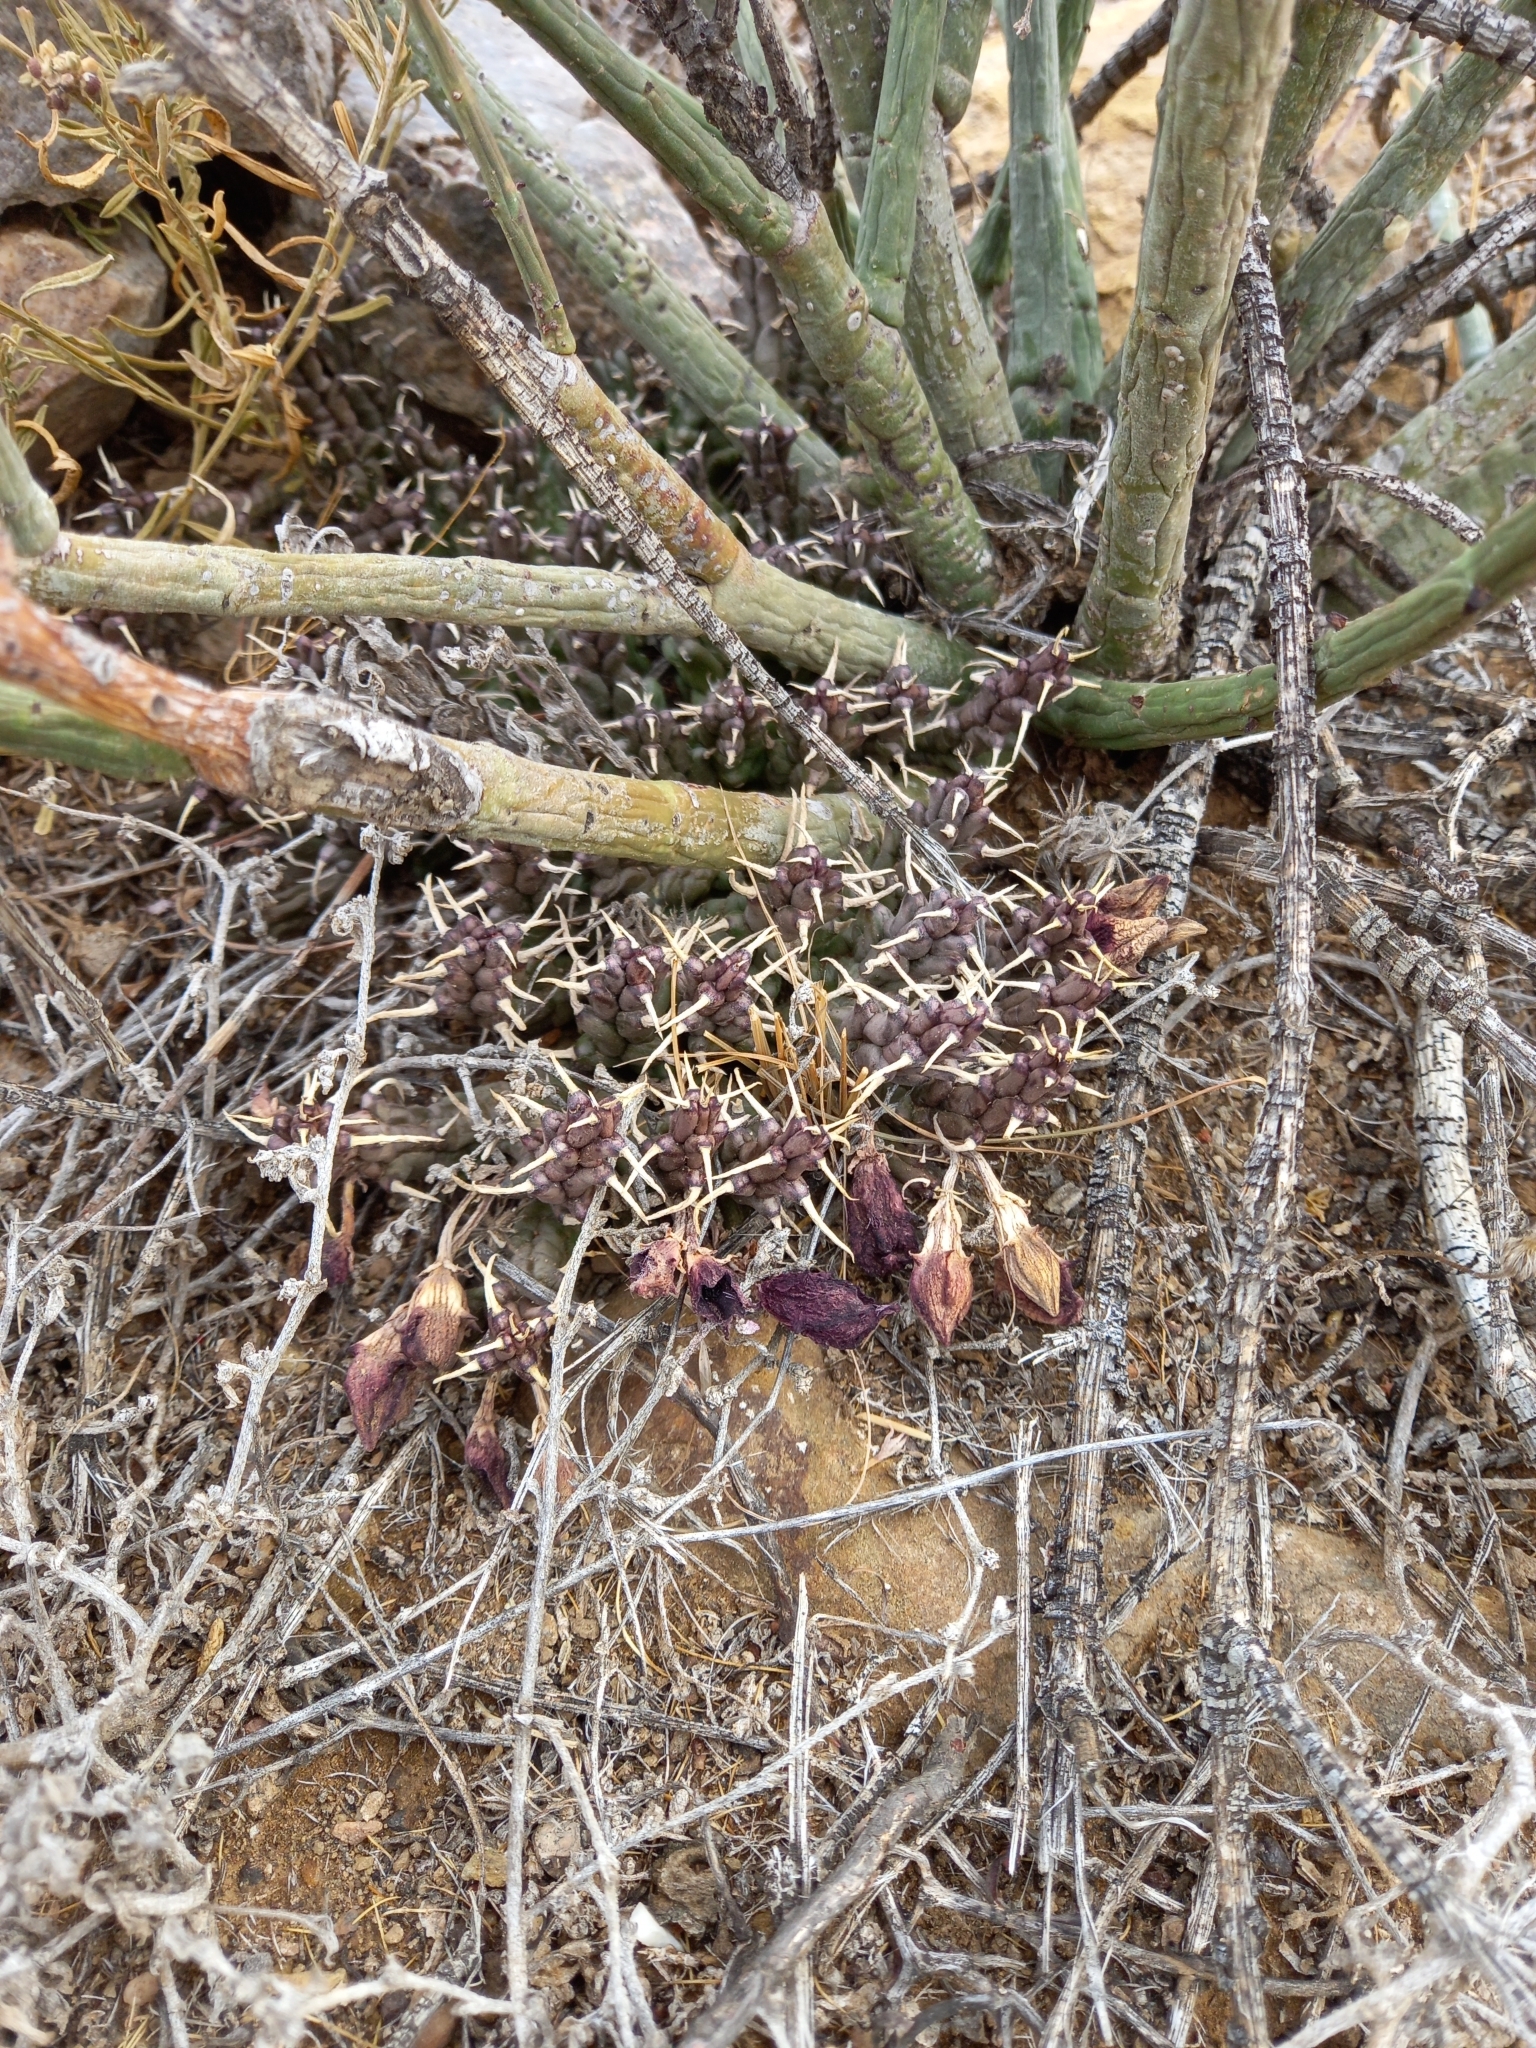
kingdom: Plantae
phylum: Tracheophyta
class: Magnoliopsida
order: Gentianales
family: Apocynaceae
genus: Ceropegia
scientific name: Ceropegia gemmiflora
